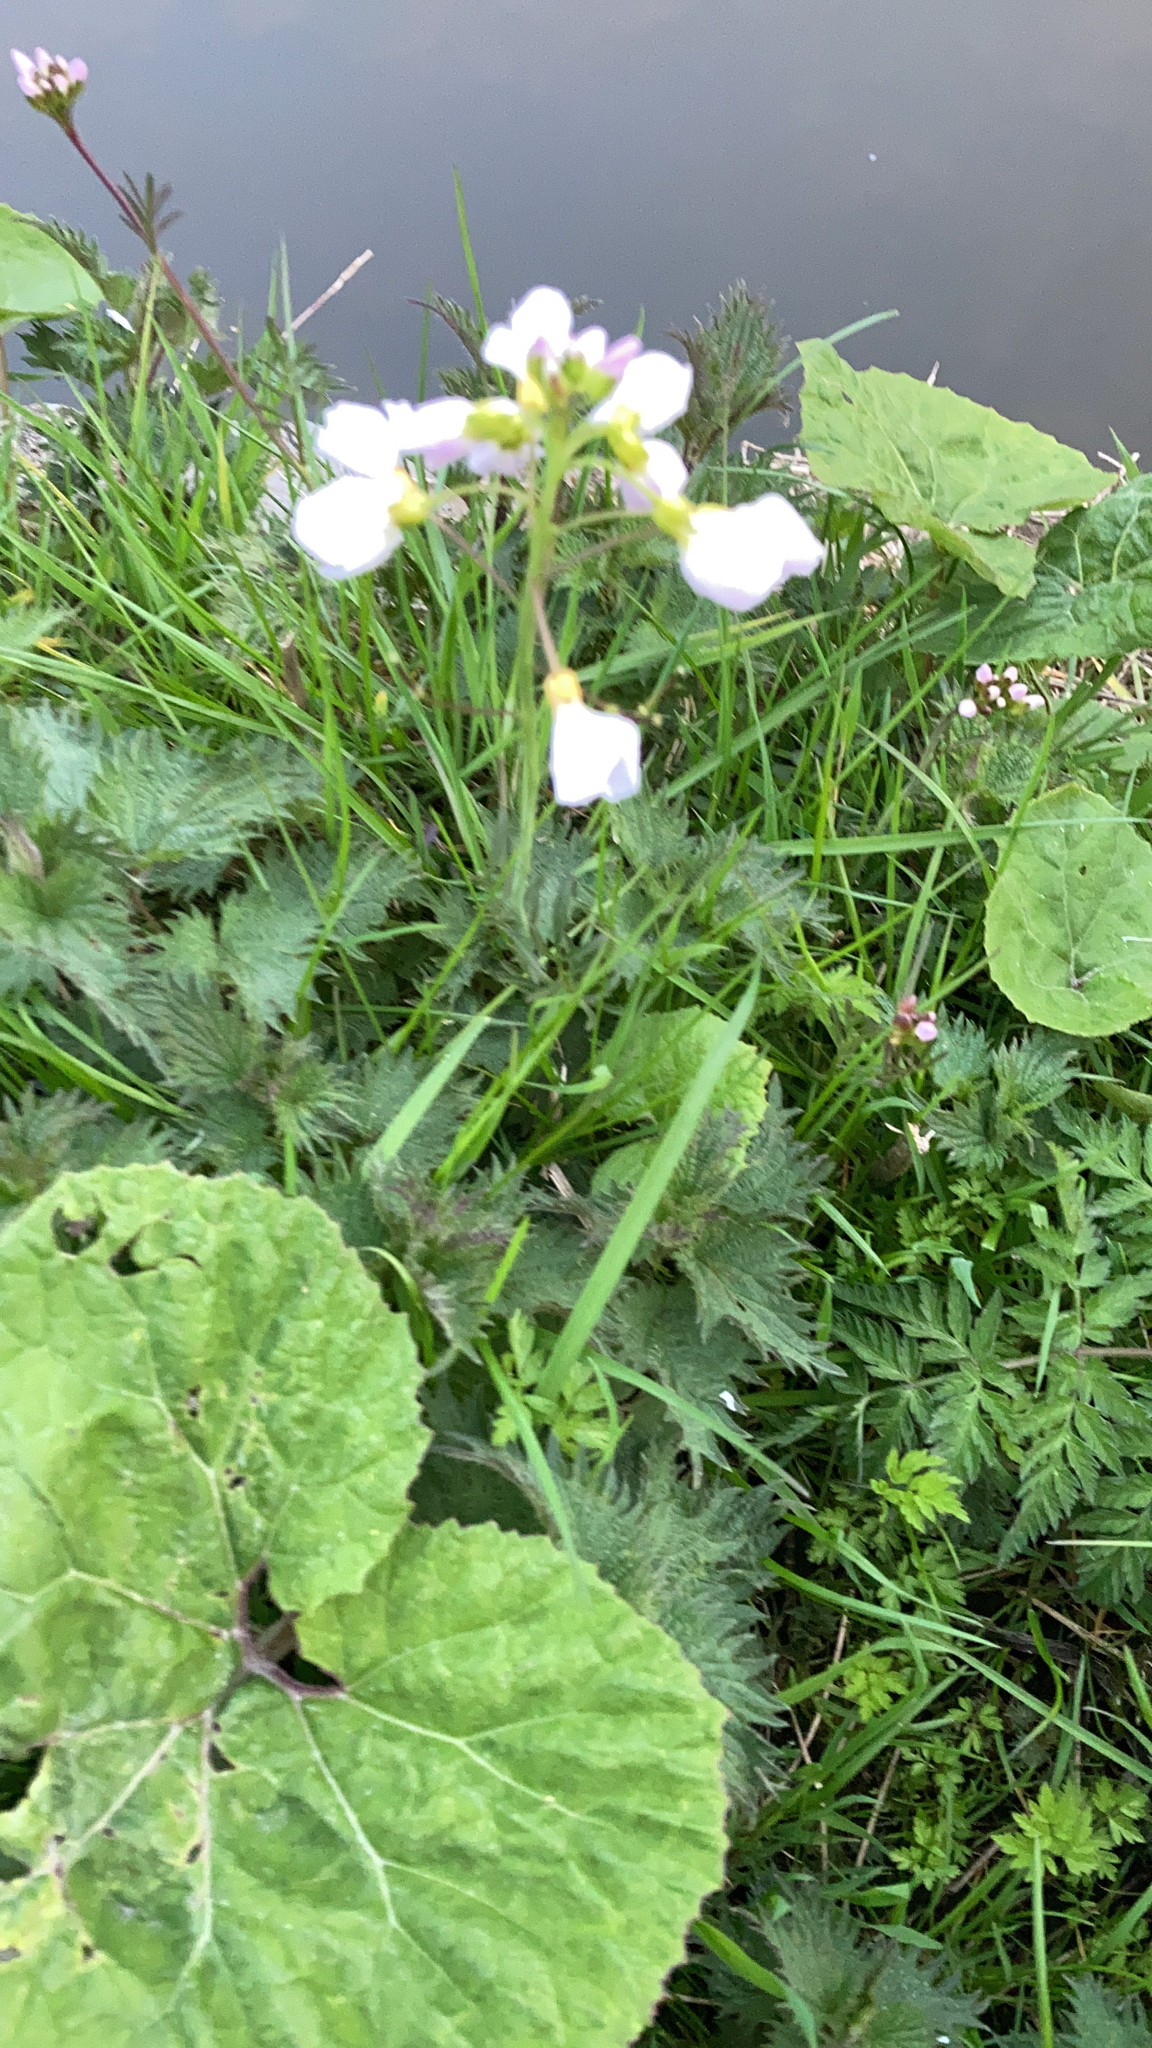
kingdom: Plantae
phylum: Tracheophyta
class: Magnoliopsida
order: Brassicales
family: Brassicaceae
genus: Cardamine
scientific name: Cardamine pratensis
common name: Cuckoo flower
